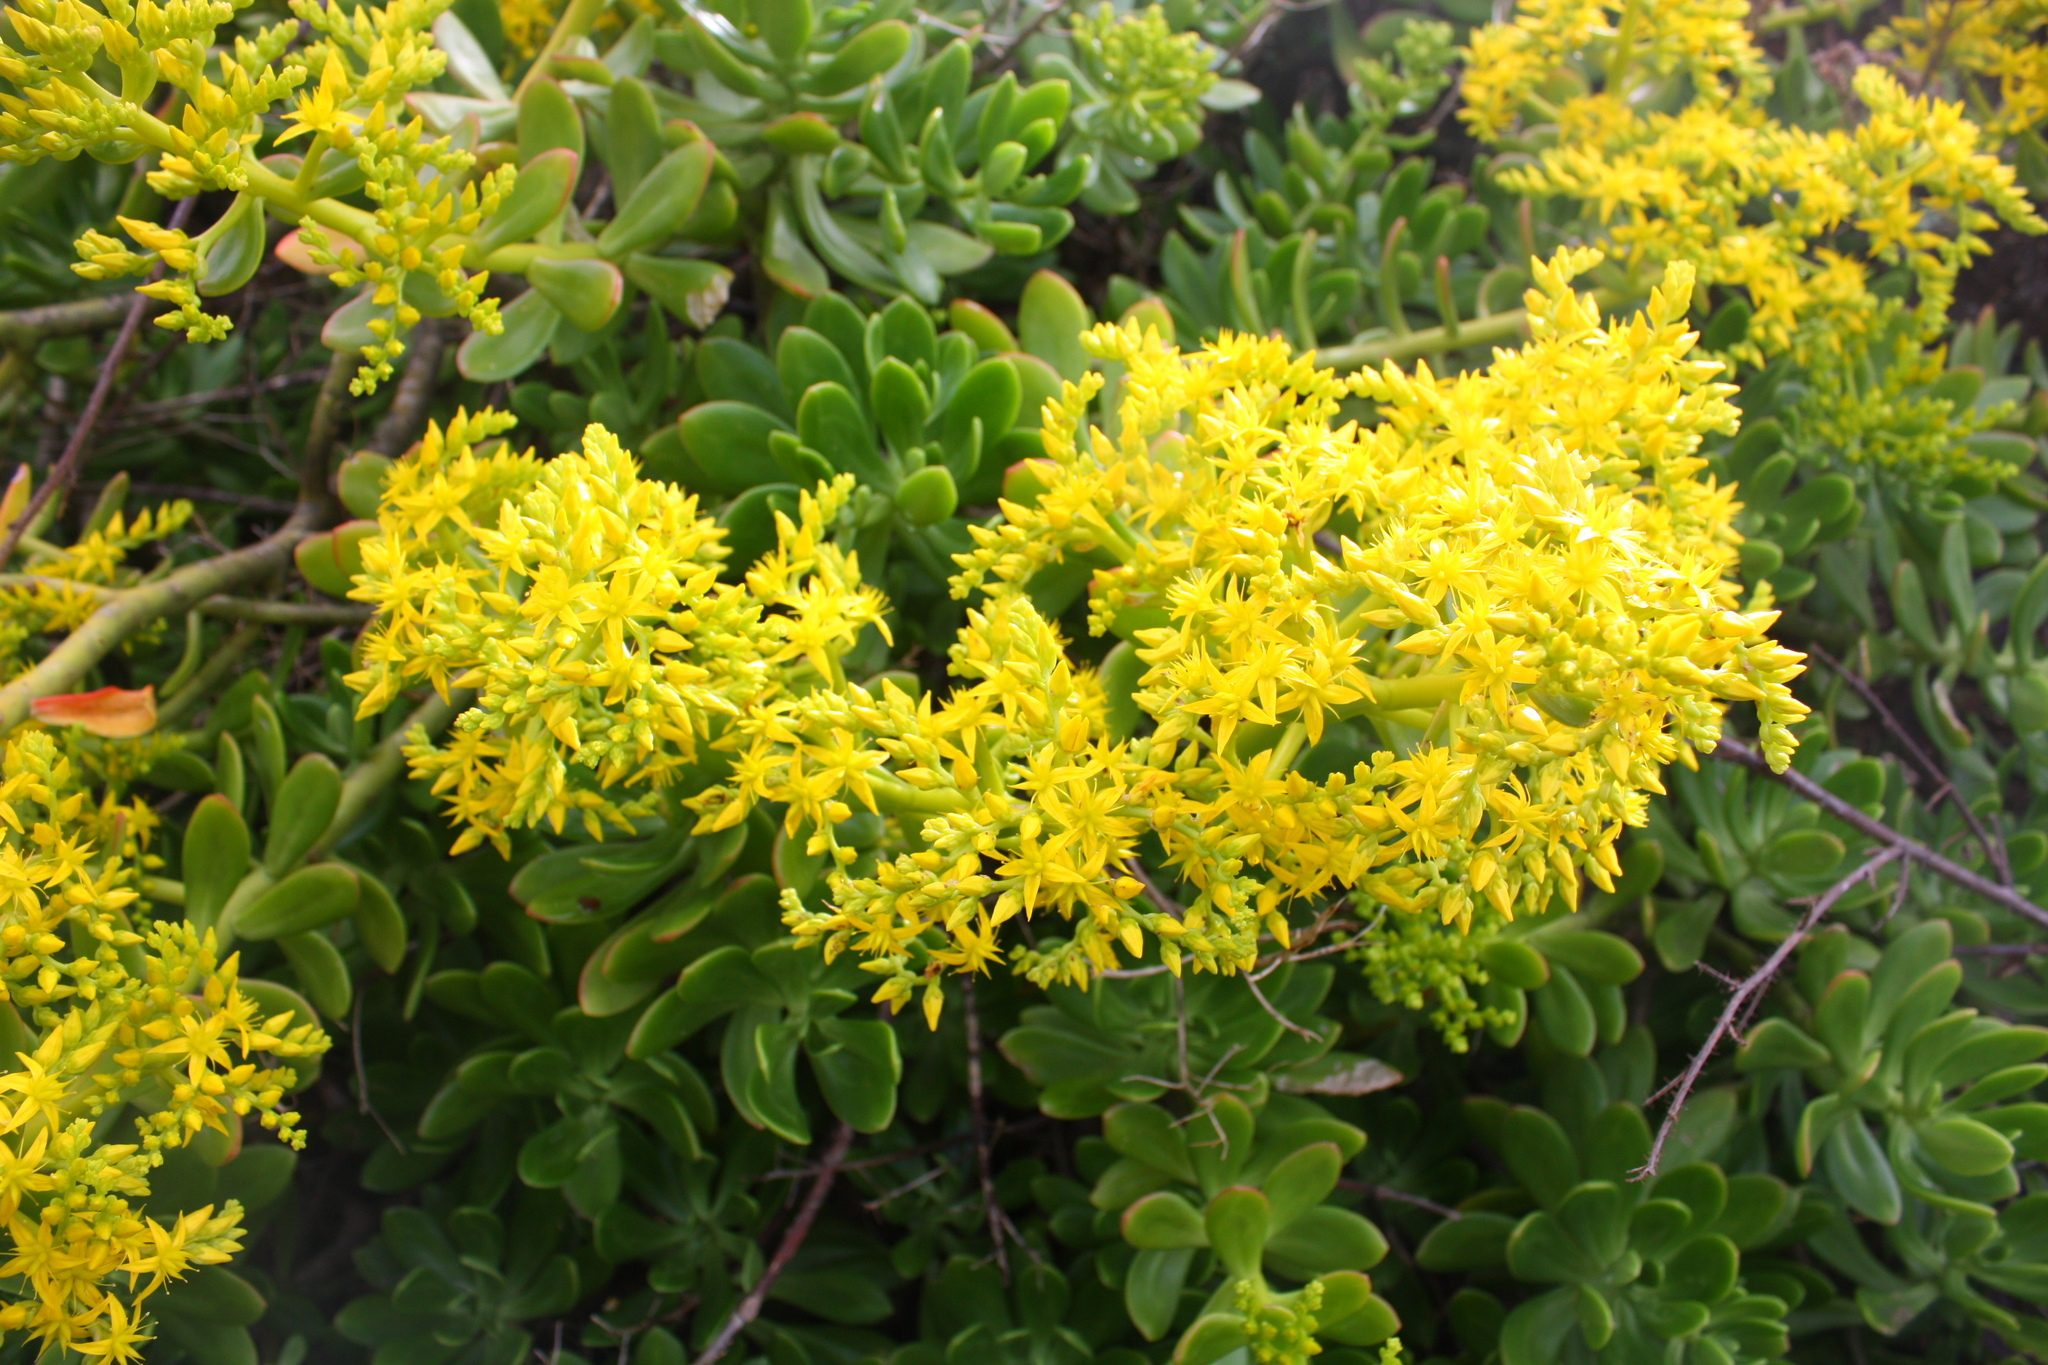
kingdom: Plantae
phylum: Tracheophyta
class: Magnoliopsida
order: Saxifragales
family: Crassulaceae
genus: Sedum
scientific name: Sedum praealtum
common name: Greater mexican-stonecrop
